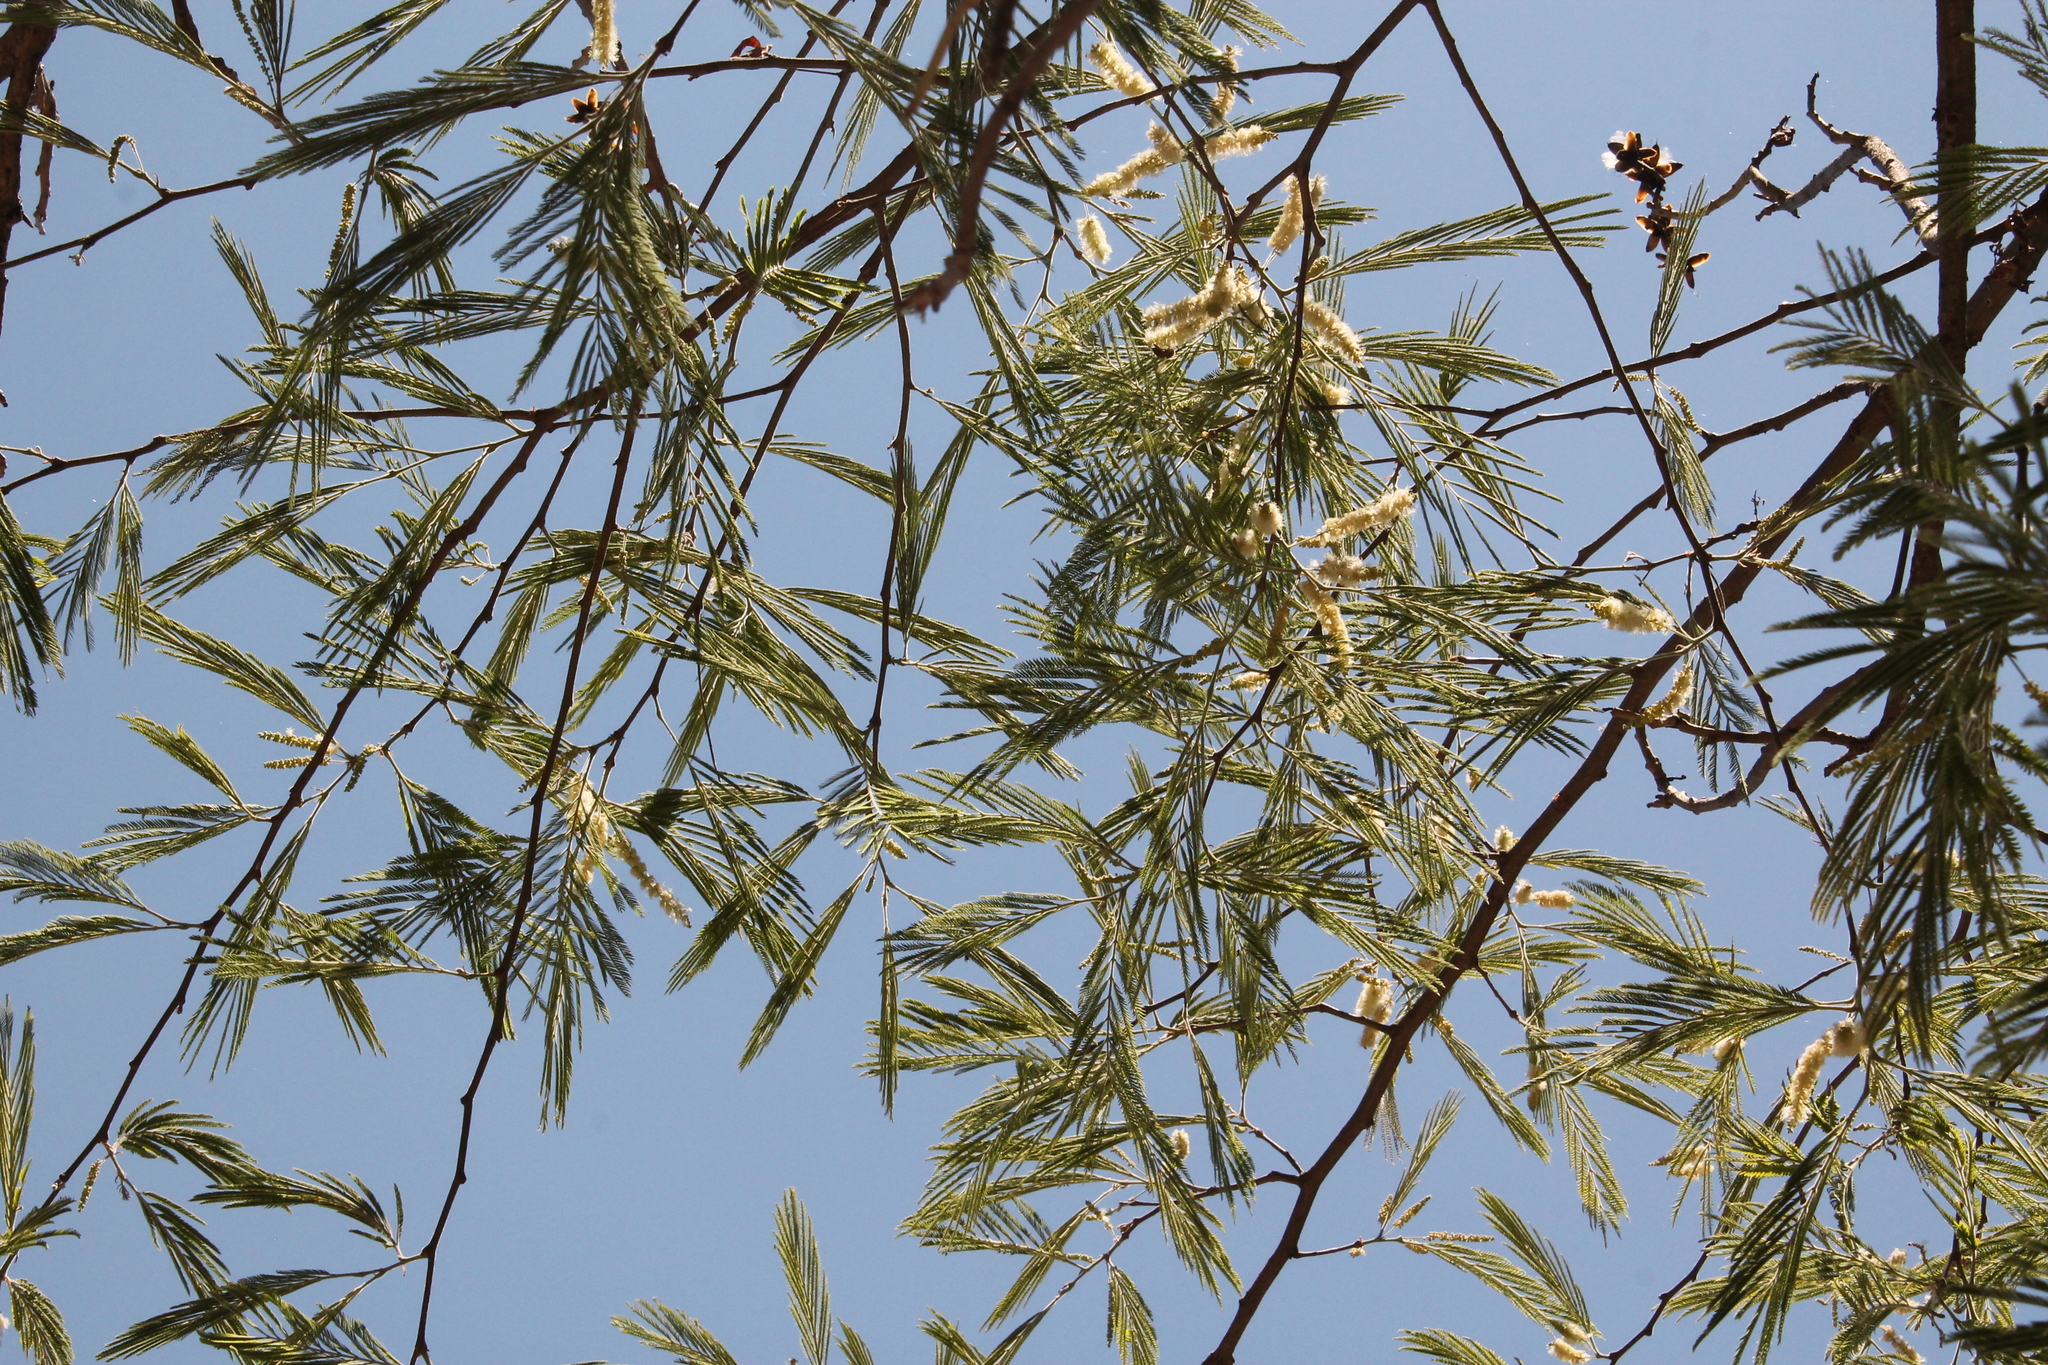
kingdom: Plantae
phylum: Tracheophyta
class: Magnoliopsida
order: Fabales
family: Fabaceae
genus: Lysiloma
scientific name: Lysiloma acapulcense
